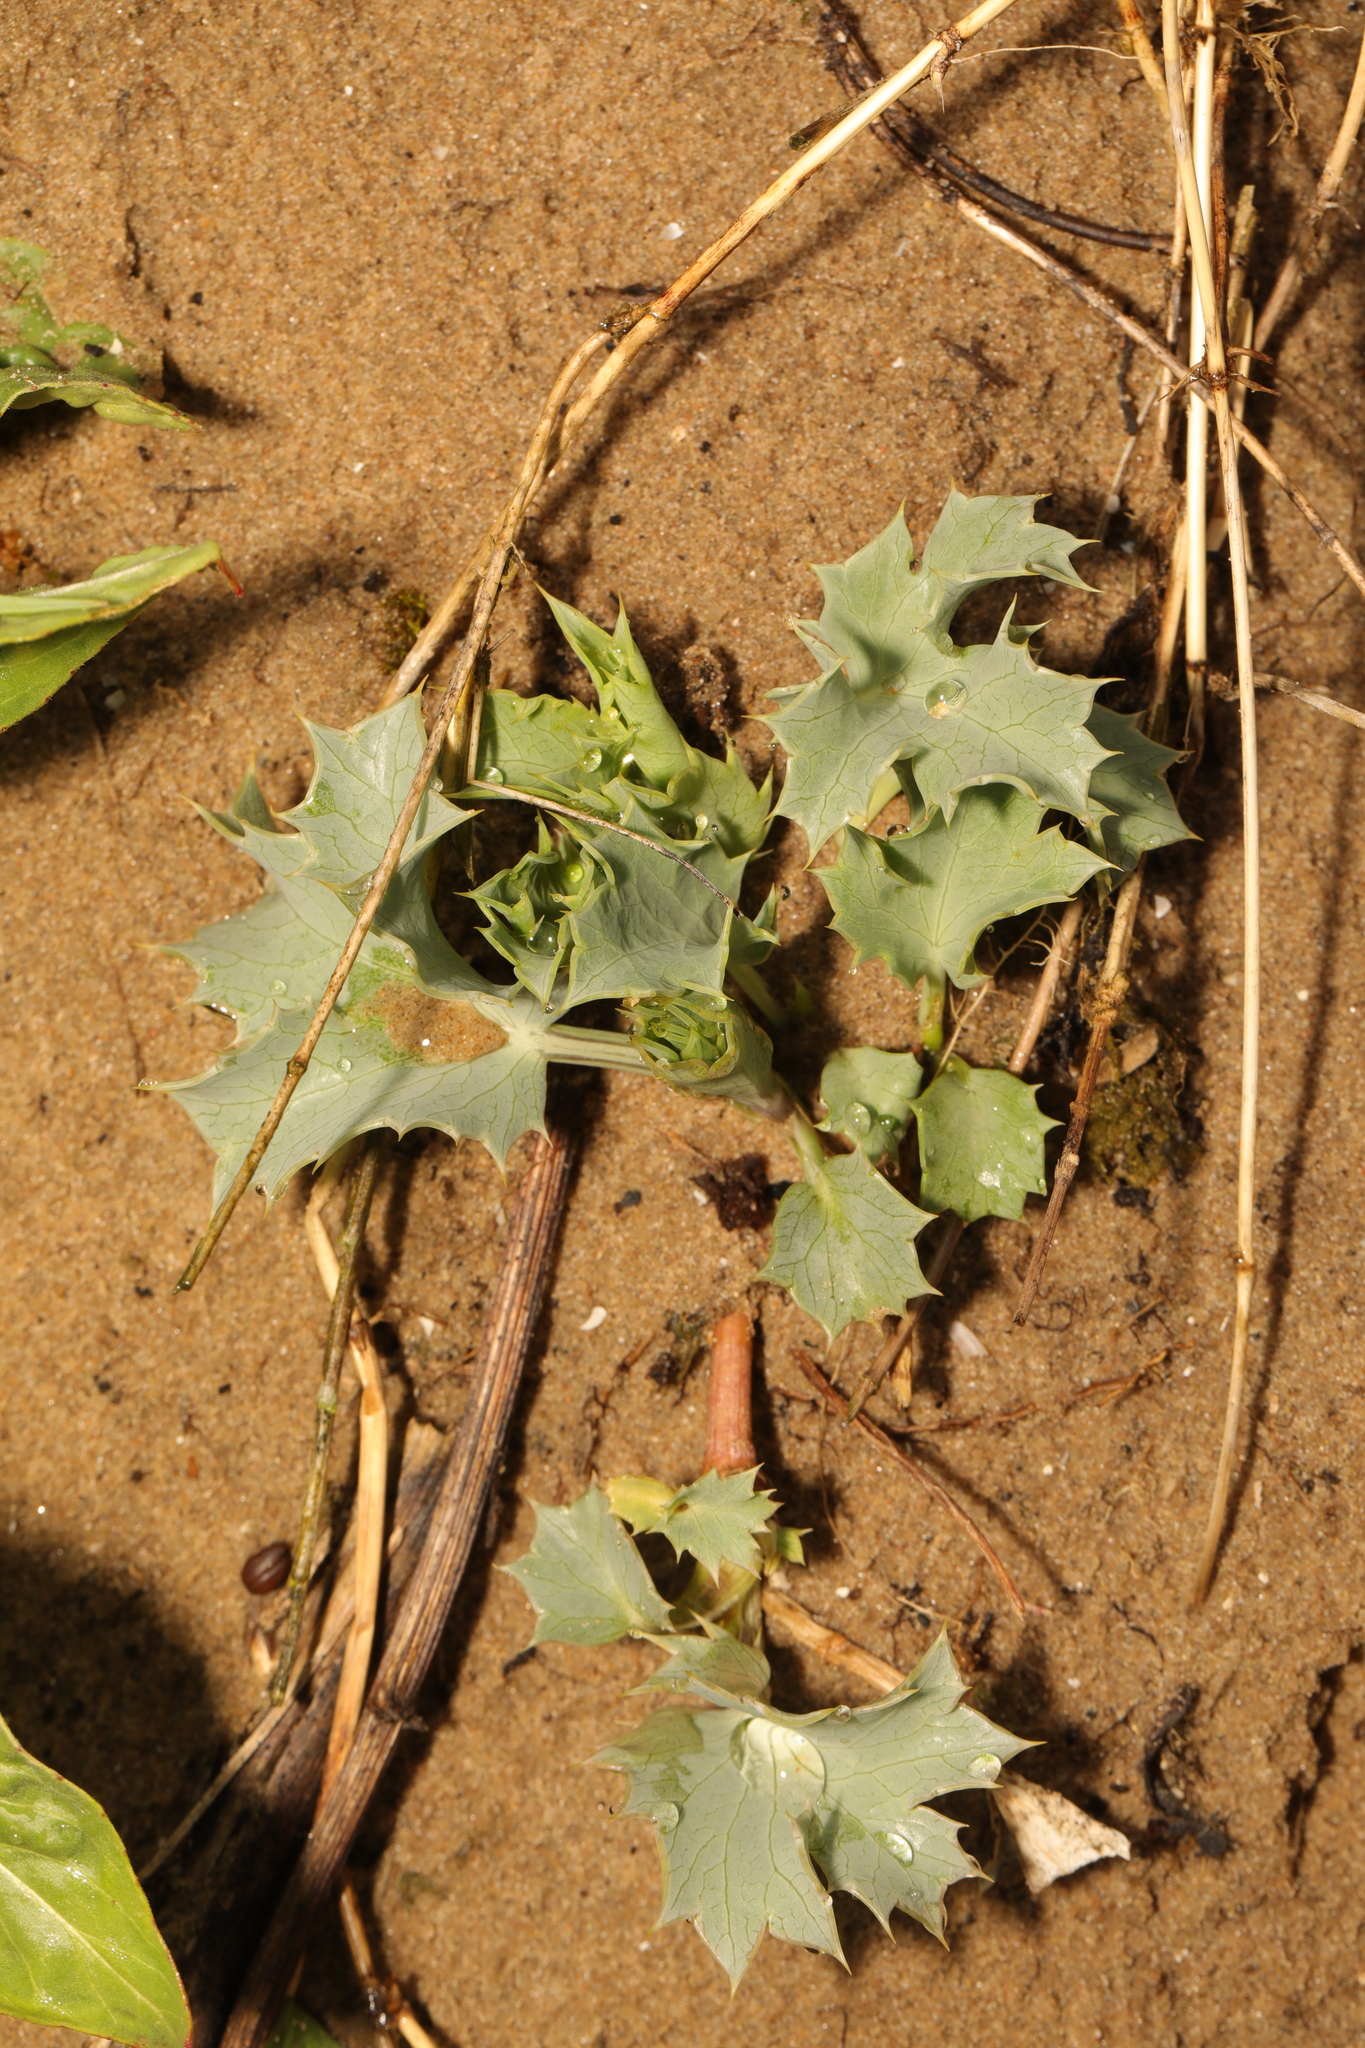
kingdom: Plantae
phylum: Tracheophyta
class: Magnoliopsida
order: Apiales
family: Apiaceae
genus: Eryngium
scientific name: Eryngium maritimum
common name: Sea-holly
